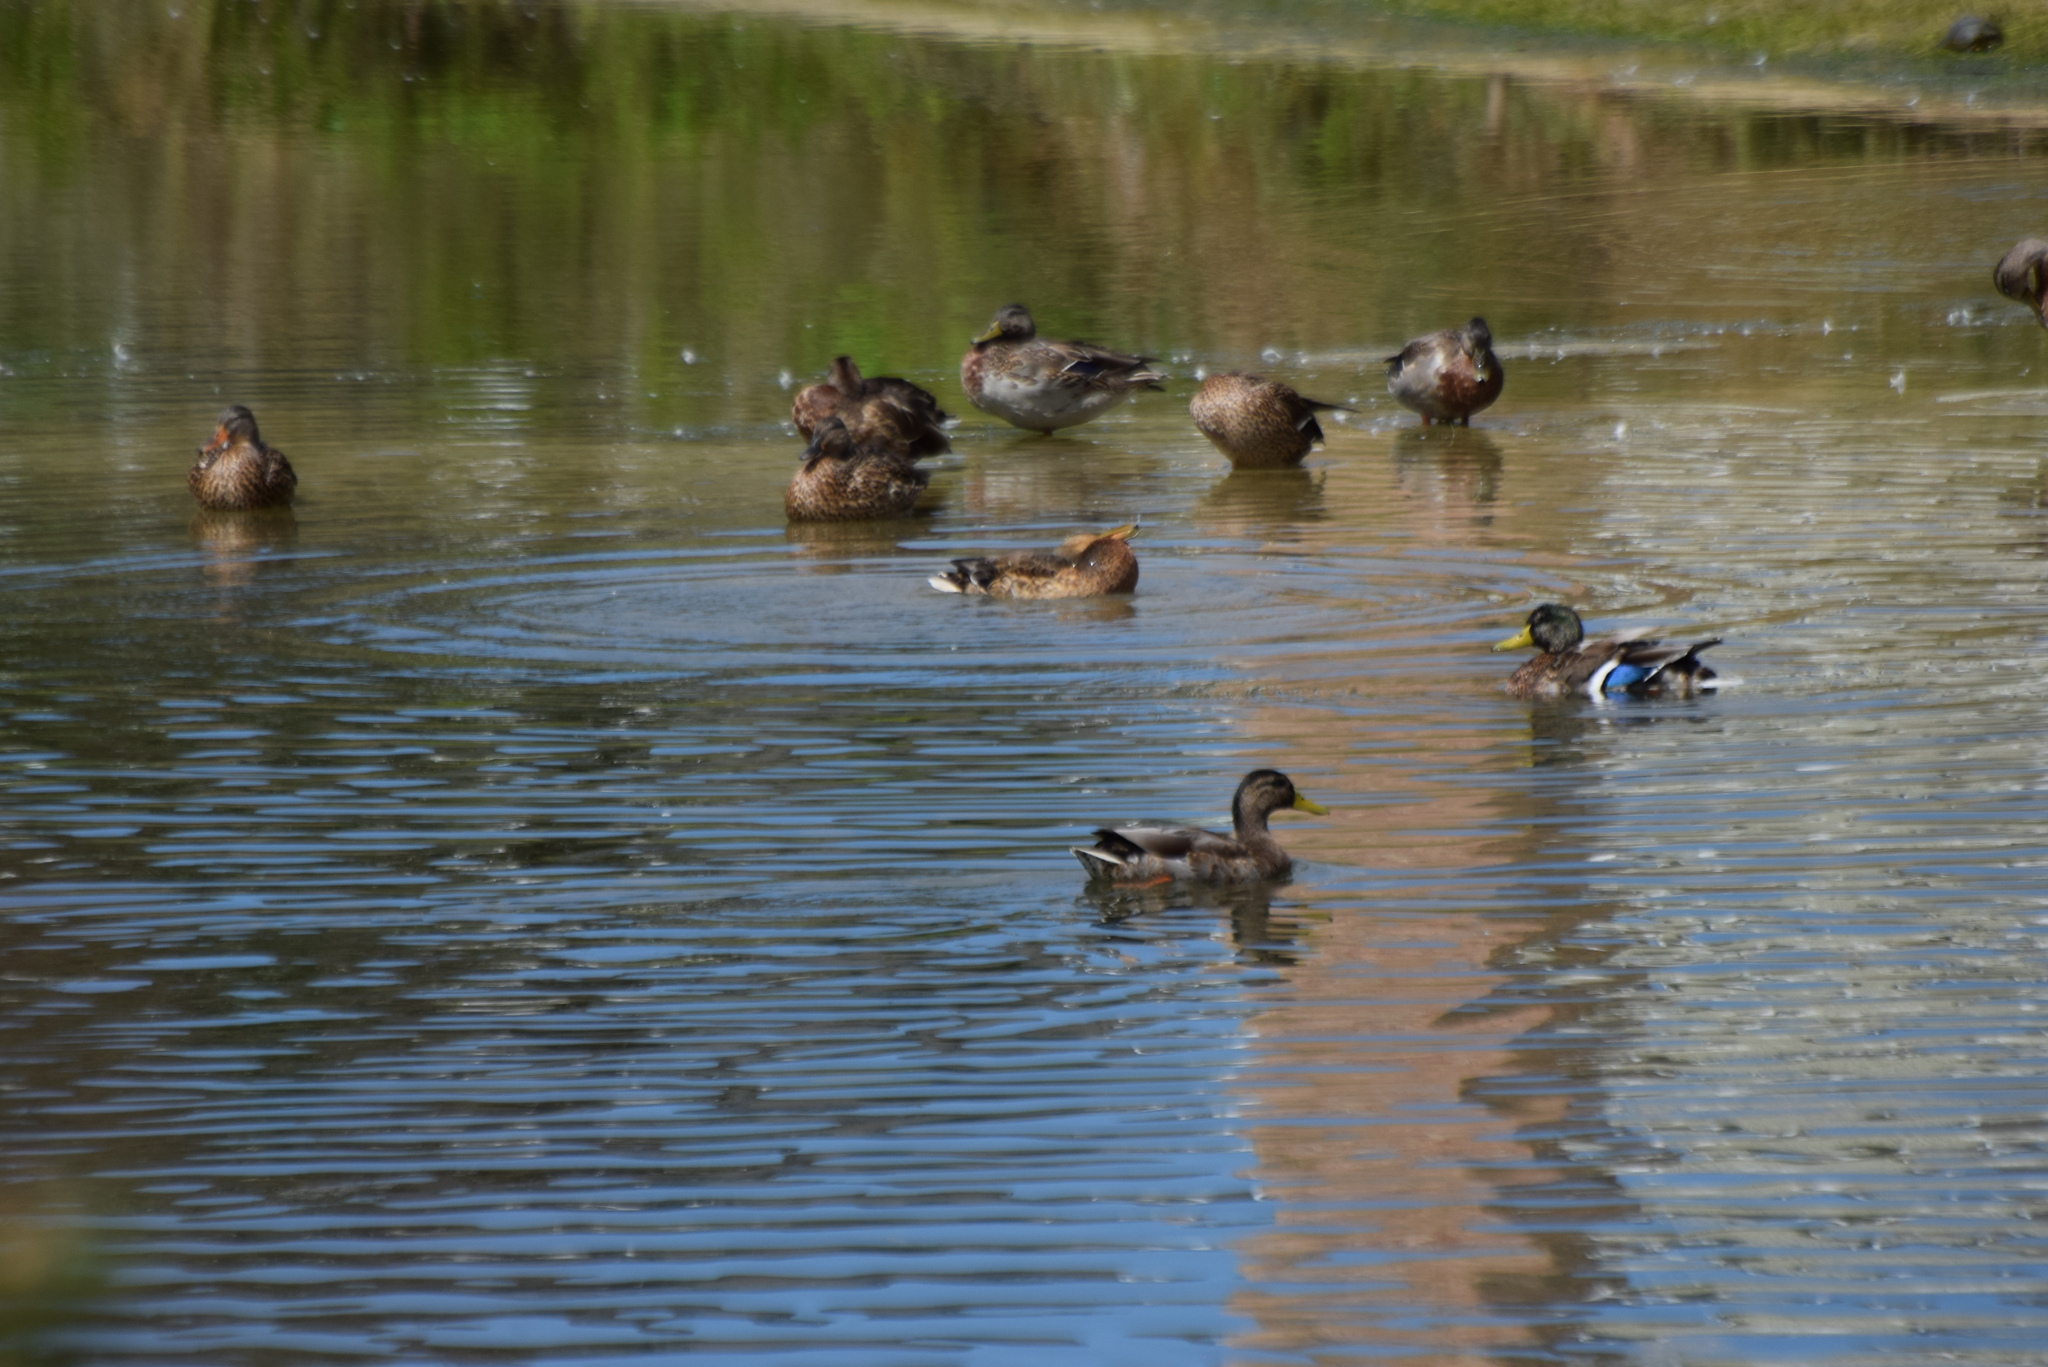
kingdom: Animalia
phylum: Chordata
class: Aves
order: Anseriformes
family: Anatidae
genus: Anas
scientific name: Anas platyrhynchos
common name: Mallard
